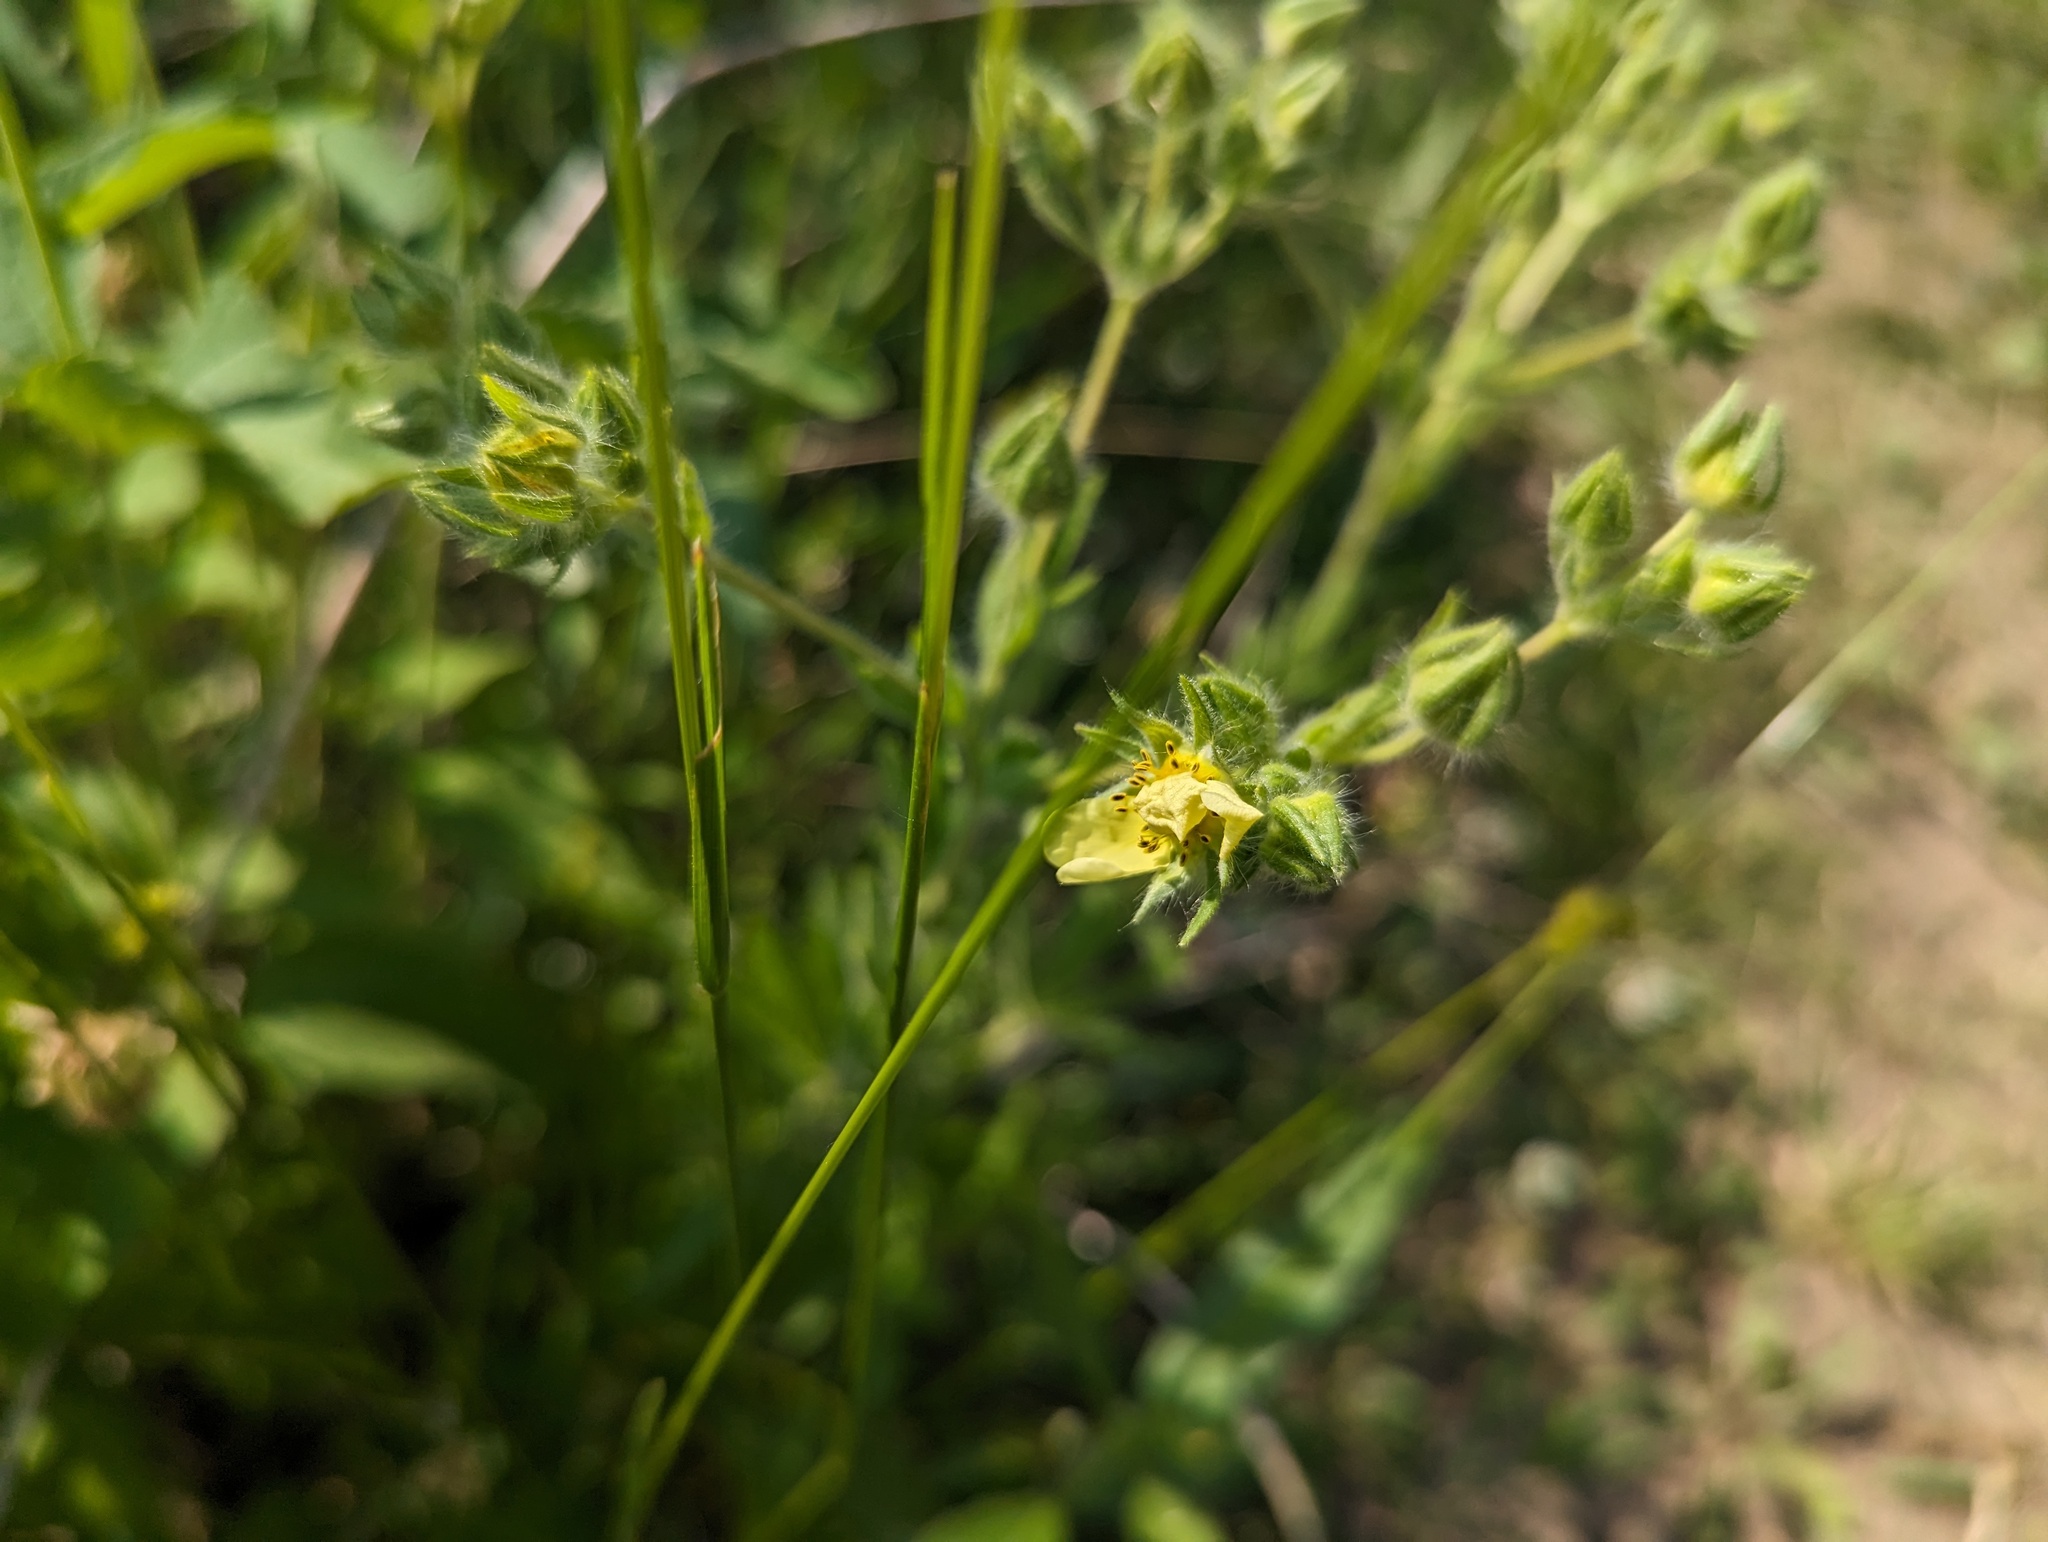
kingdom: Plantae
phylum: Tracheophyta
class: Magnoliopsida
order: Rosales
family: Rosaceae
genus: Potentilla
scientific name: Potentilla recta
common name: Sulphur cinquefoil
